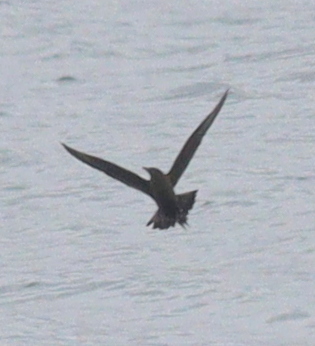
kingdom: Animalia
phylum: Chordata
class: Aves
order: Charadriiformes
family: Stercorariidae
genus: Stercorarius
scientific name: Stercorarius parasiticus
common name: Parasitic jaeger
